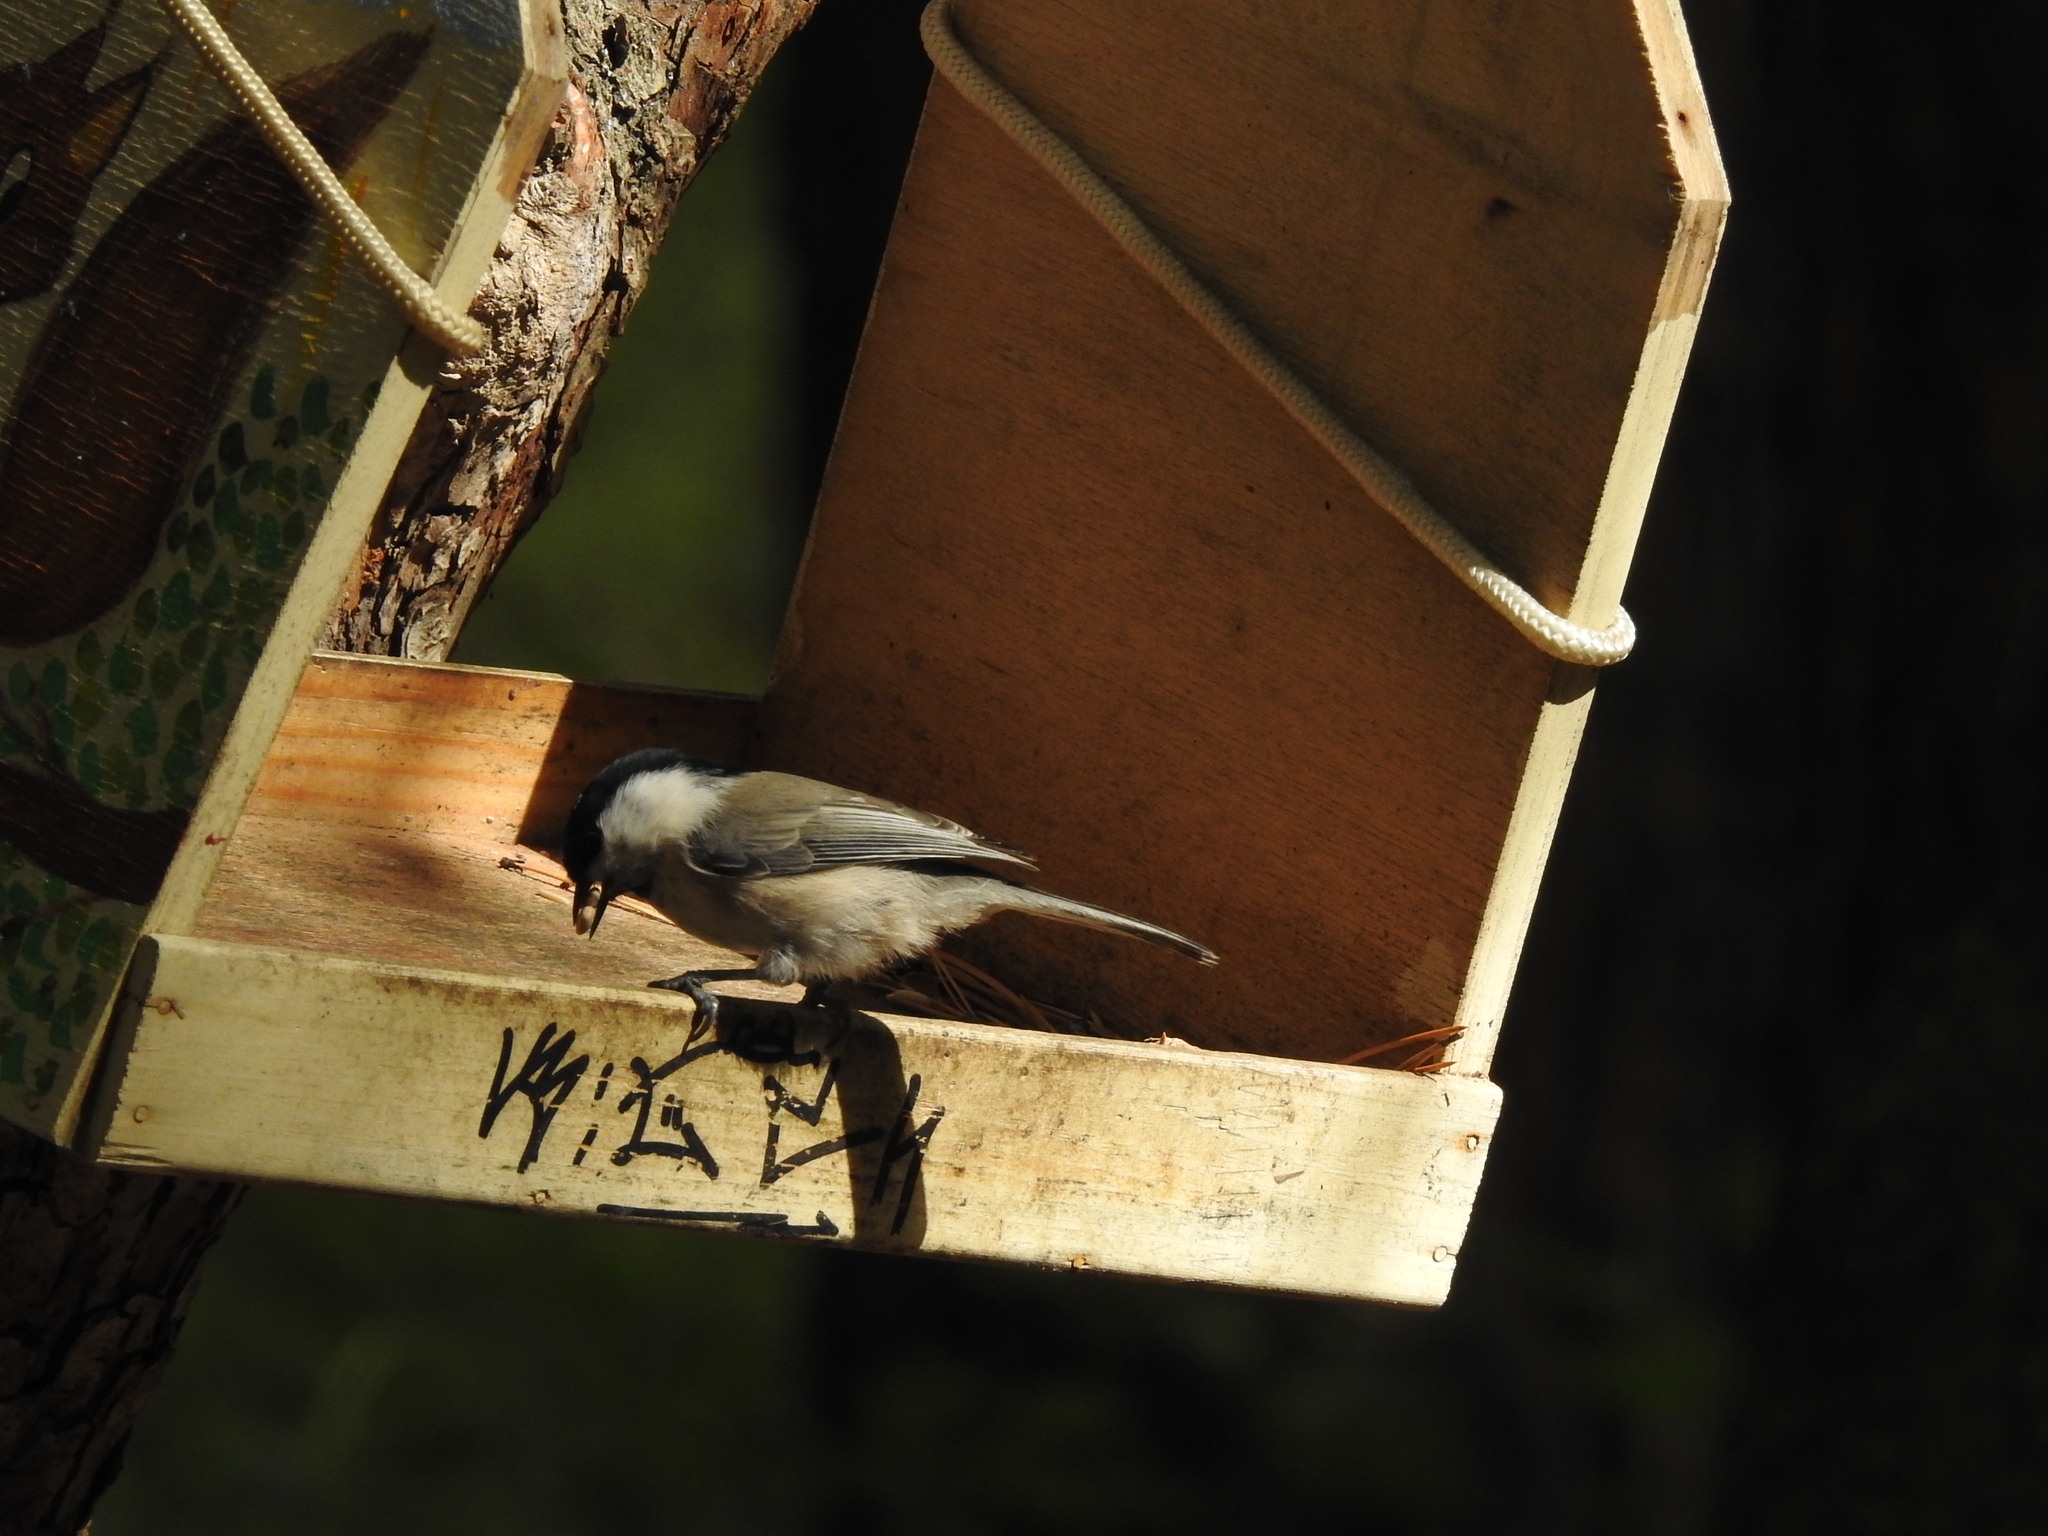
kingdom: Animalia
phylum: Chordata
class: Aves
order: Passeriformes
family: Paridae
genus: Poecile
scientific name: Poecile montanus
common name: Willow tit
